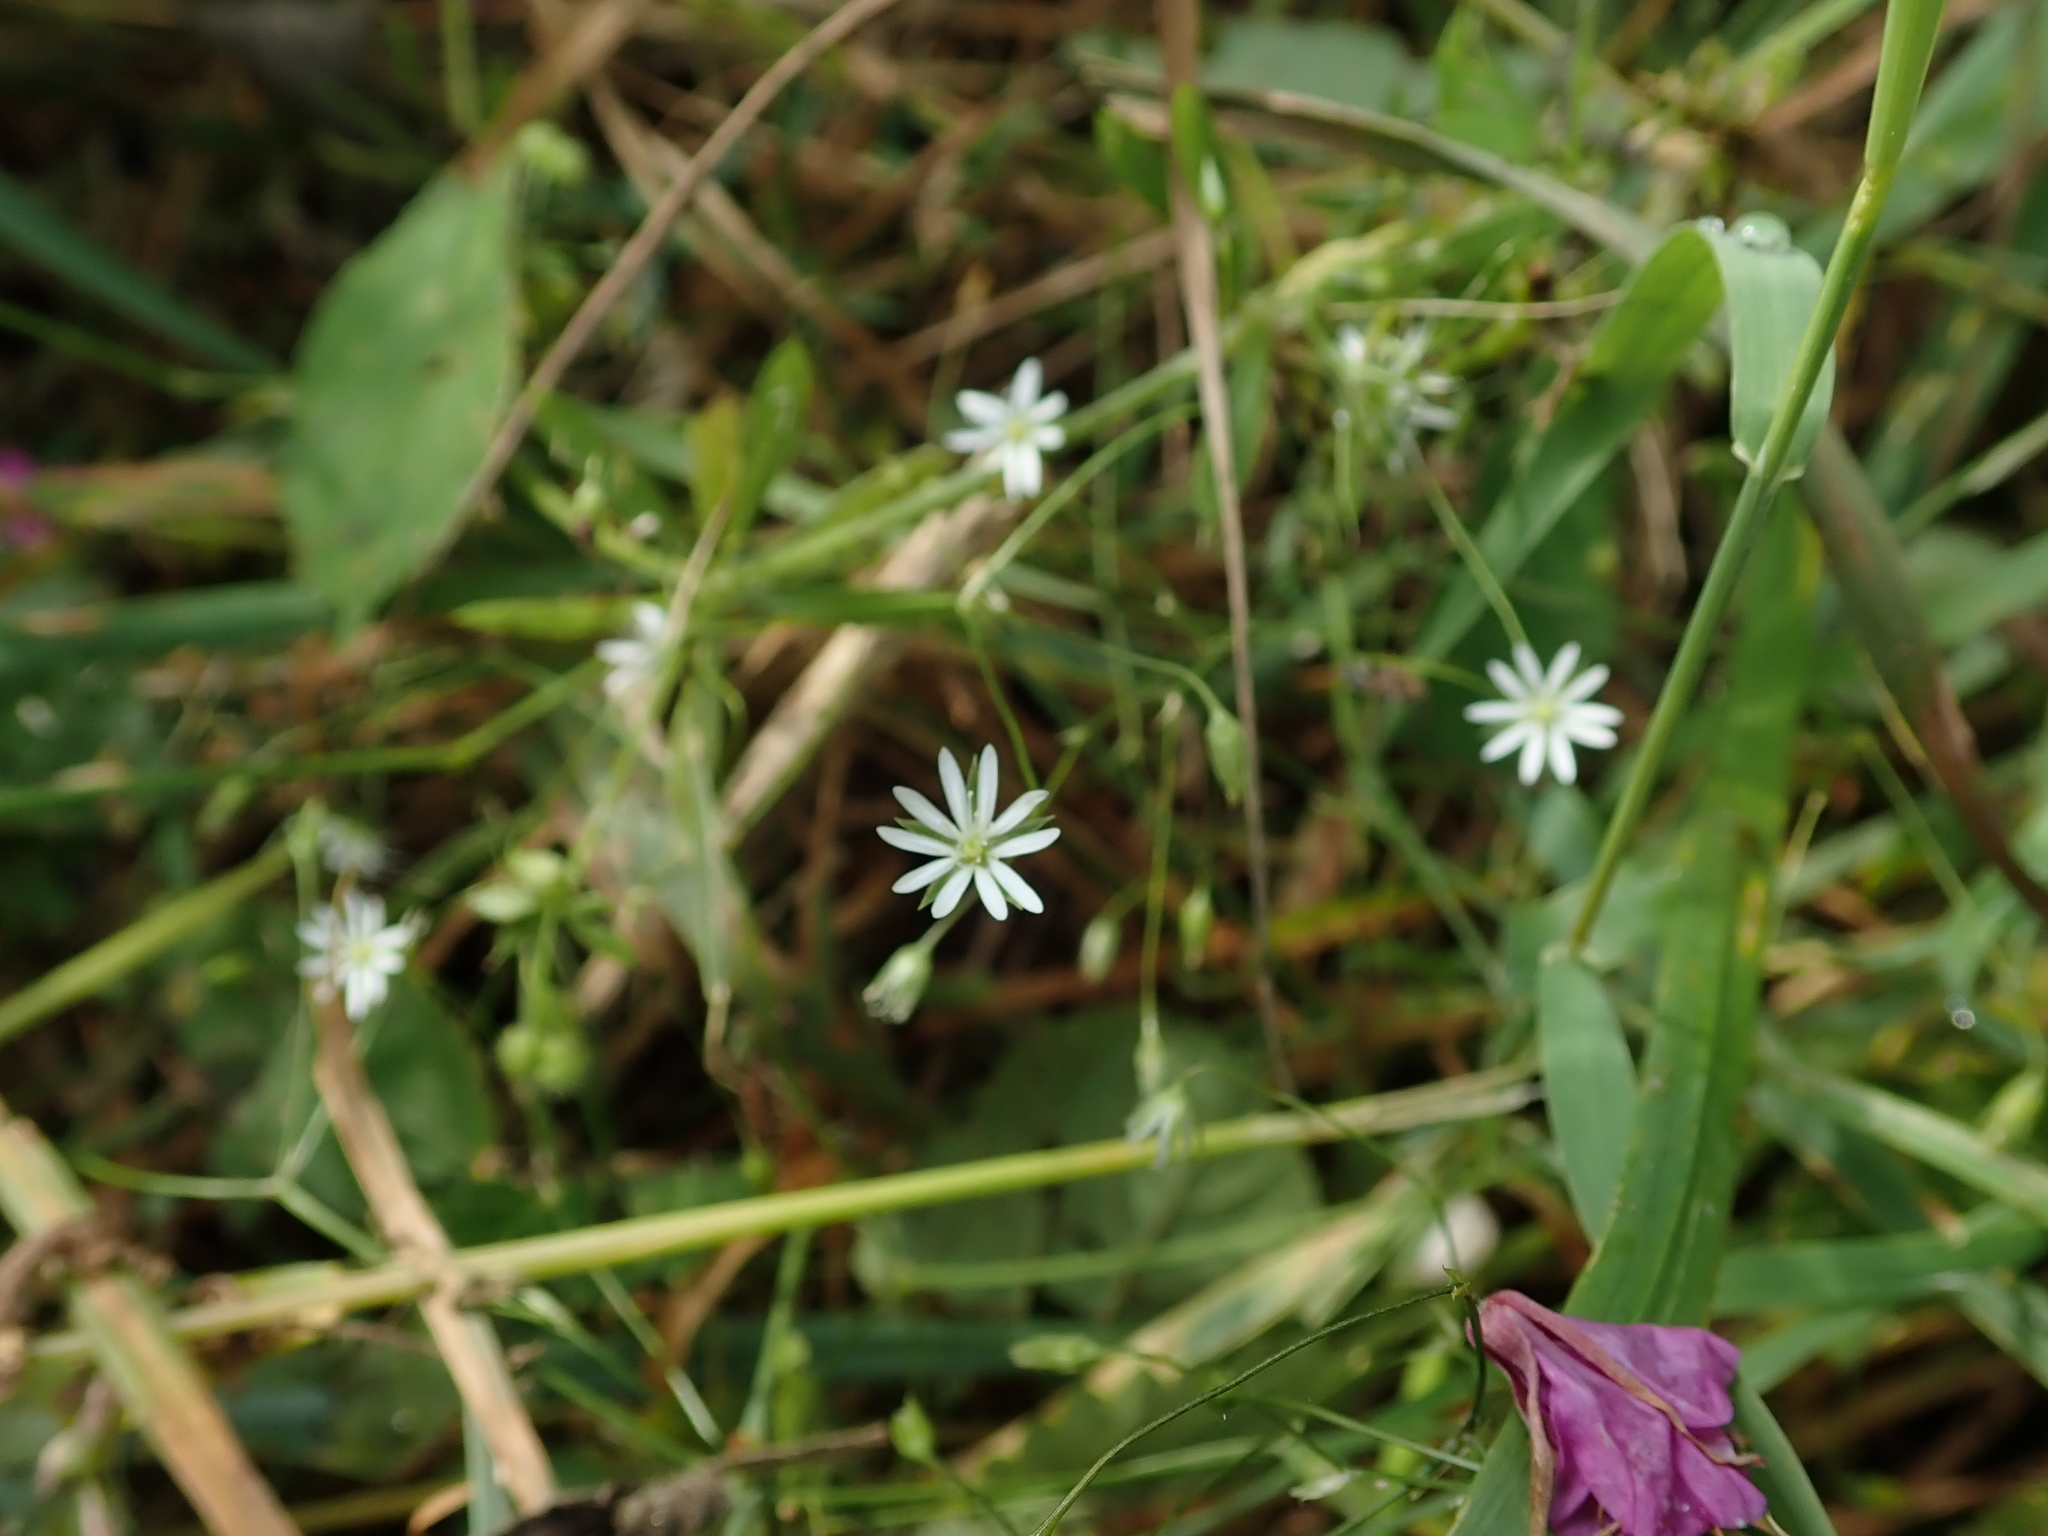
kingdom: Plantae
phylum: Tracheophyta
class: Magnoliopsida
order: Caryophyllales
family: Caryophyllaceae
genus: Stellaria
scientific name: Stellaria graminea
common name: Grass-like starwort
